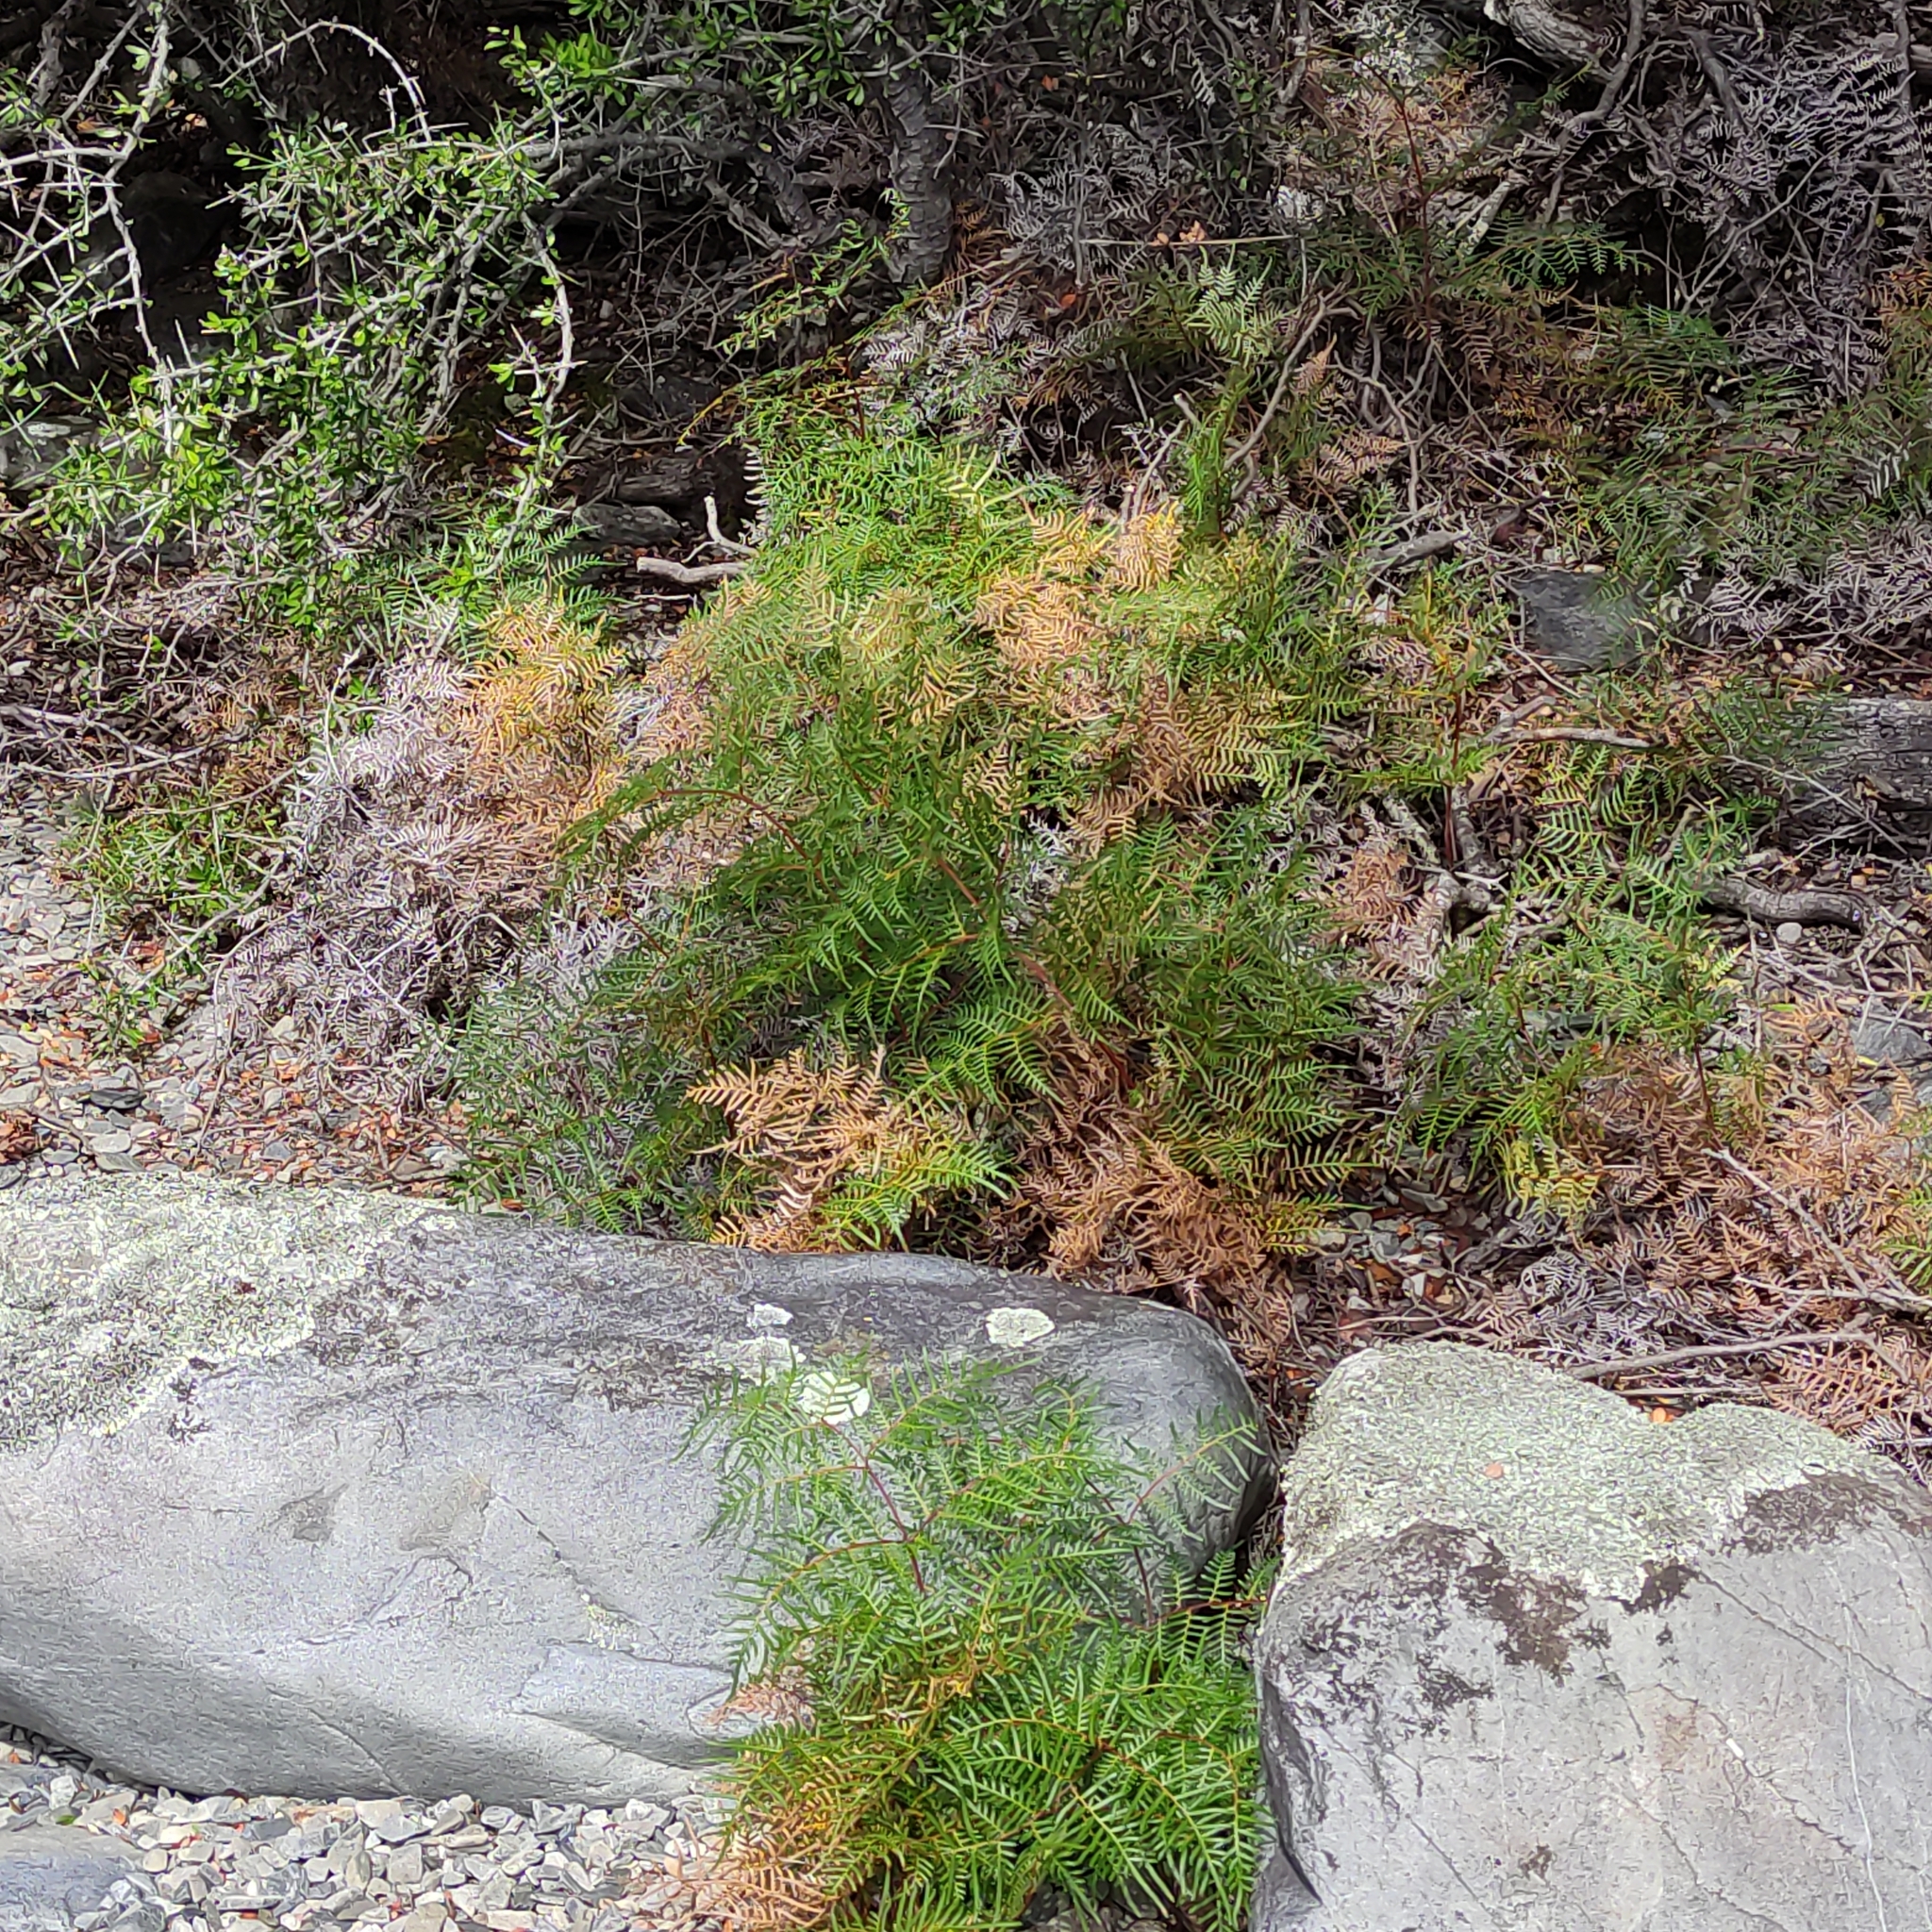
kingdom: Plantae
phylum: Tracheophyta
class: Polypodiopsida
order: Polypodiales
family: Dennstaedtiaceae
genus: Pteridium
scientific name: Pteridium esculentum
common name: Bracken fern
